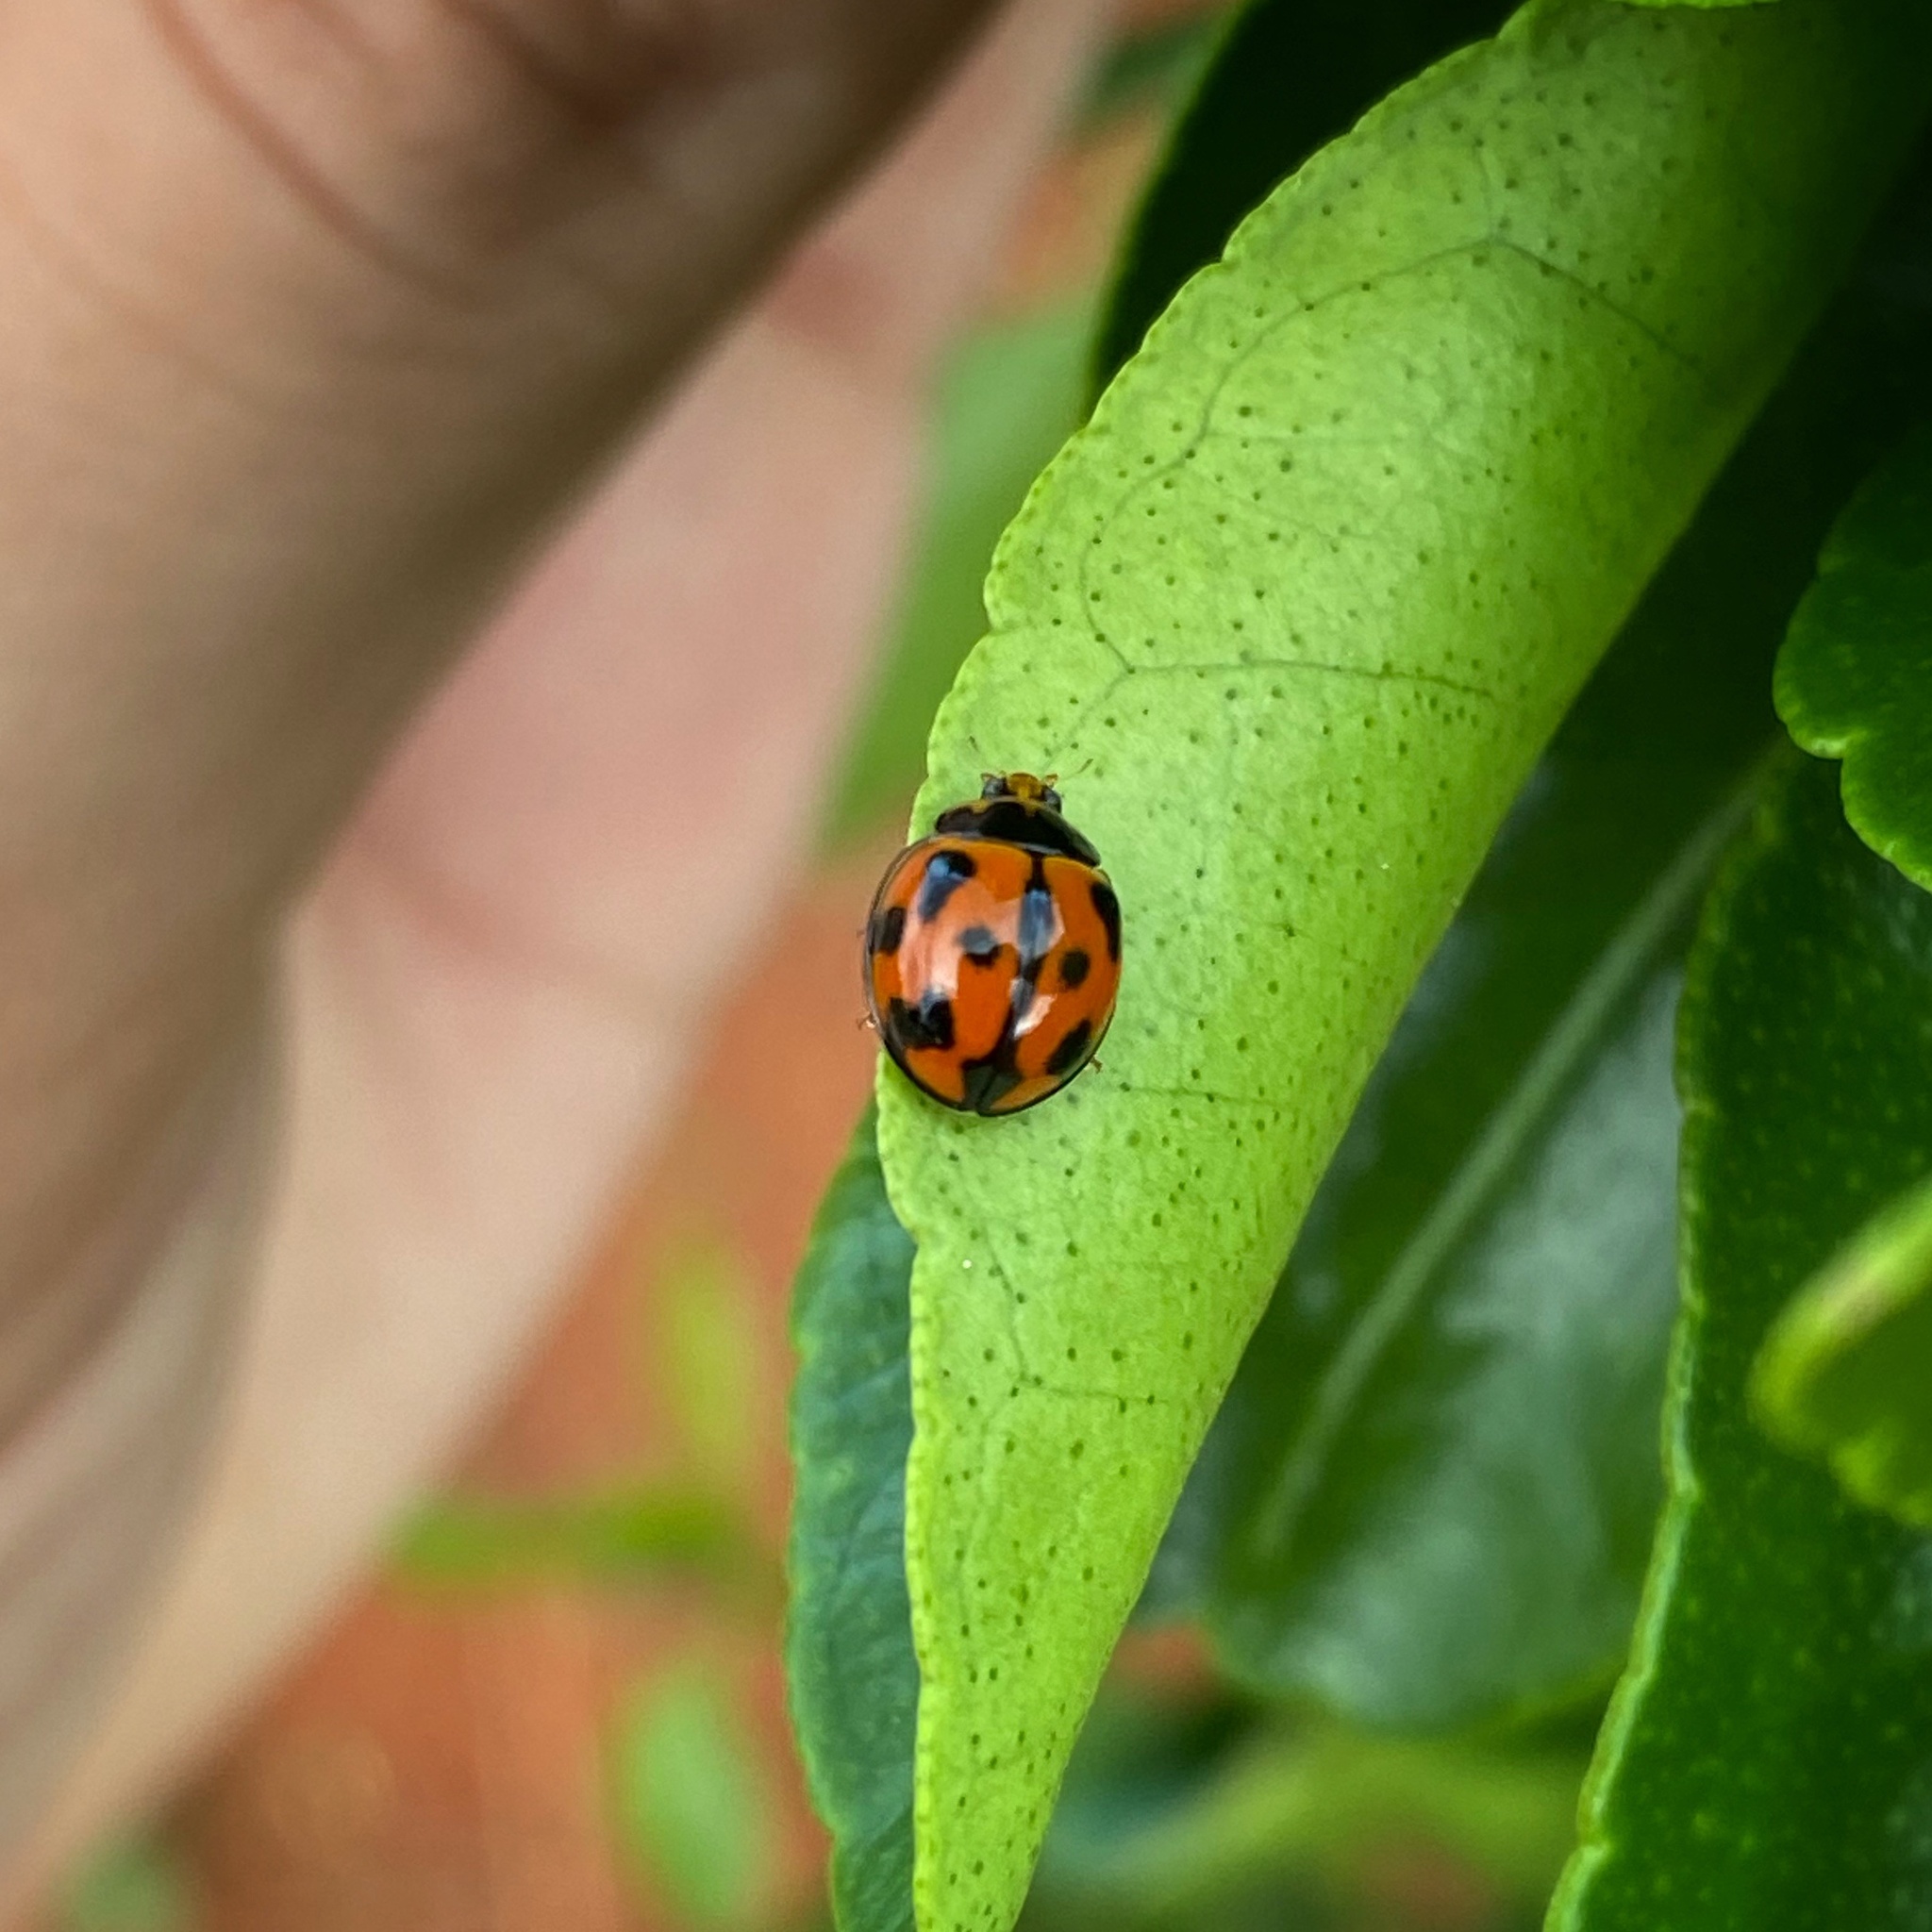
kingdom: Animalia
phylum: Arthropoda
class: Insecta
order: Coleoptera
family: Coccinellidae
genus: Coelophora
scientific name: Coelophora inaequalis
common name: Common australian lady beetle
